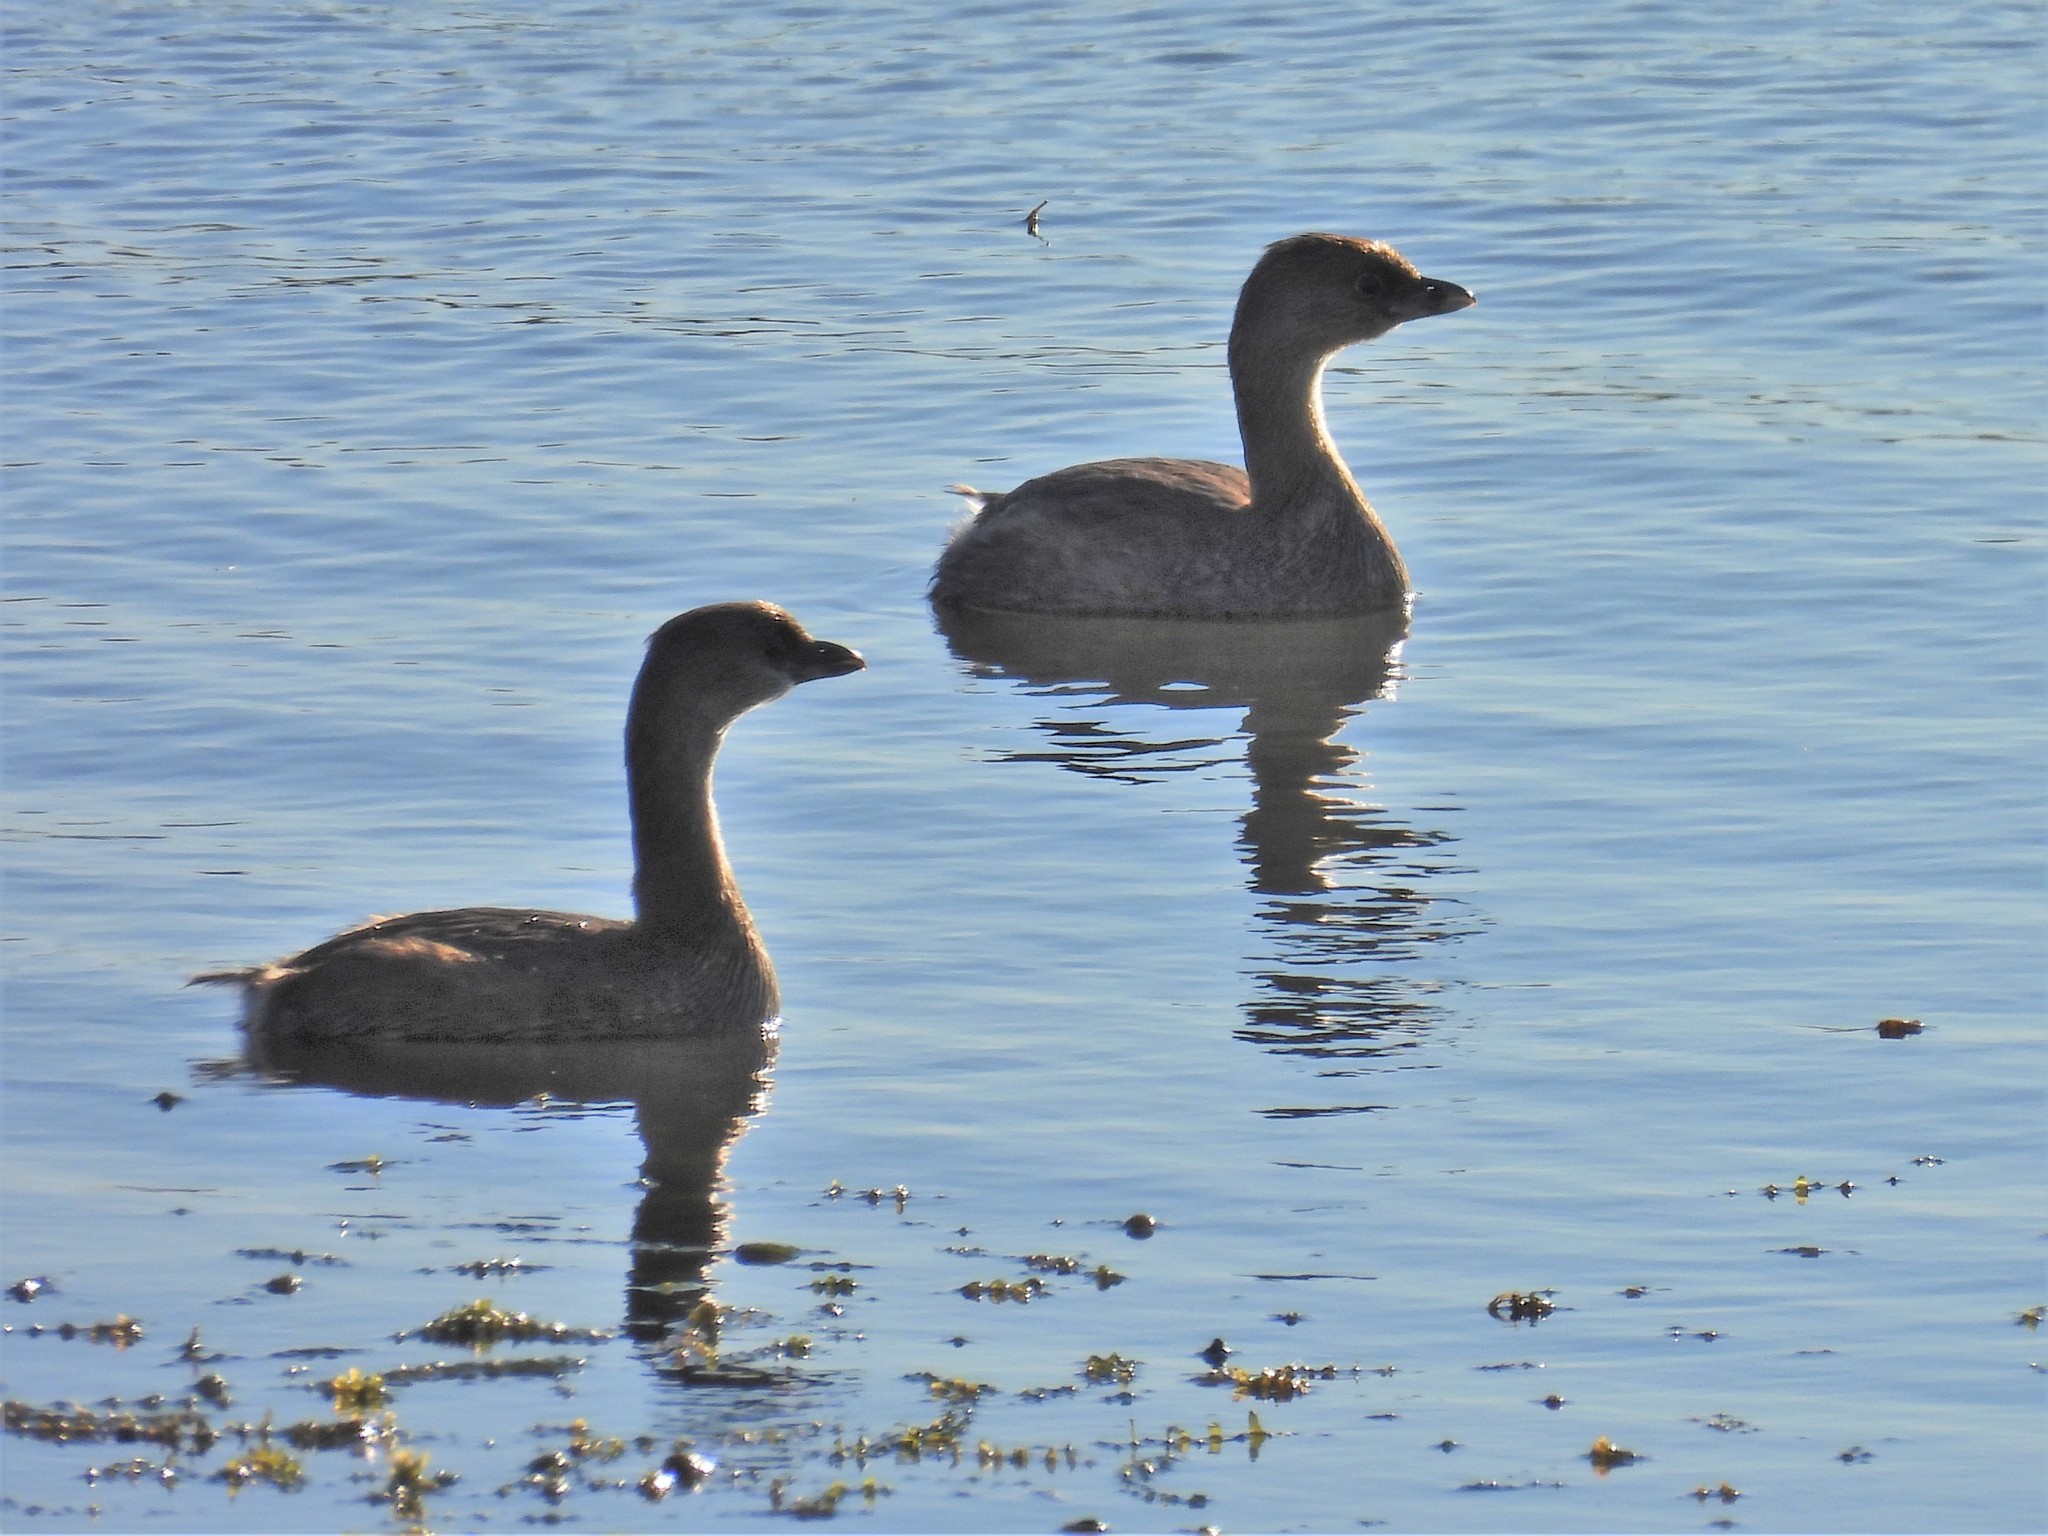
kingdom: Animalia
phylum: Chordata
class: Aves
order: Podicipediformes
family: Podicipedidae
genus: Podilymbus
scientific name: Podilymbus podiceps
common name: Pied-billed grebe
